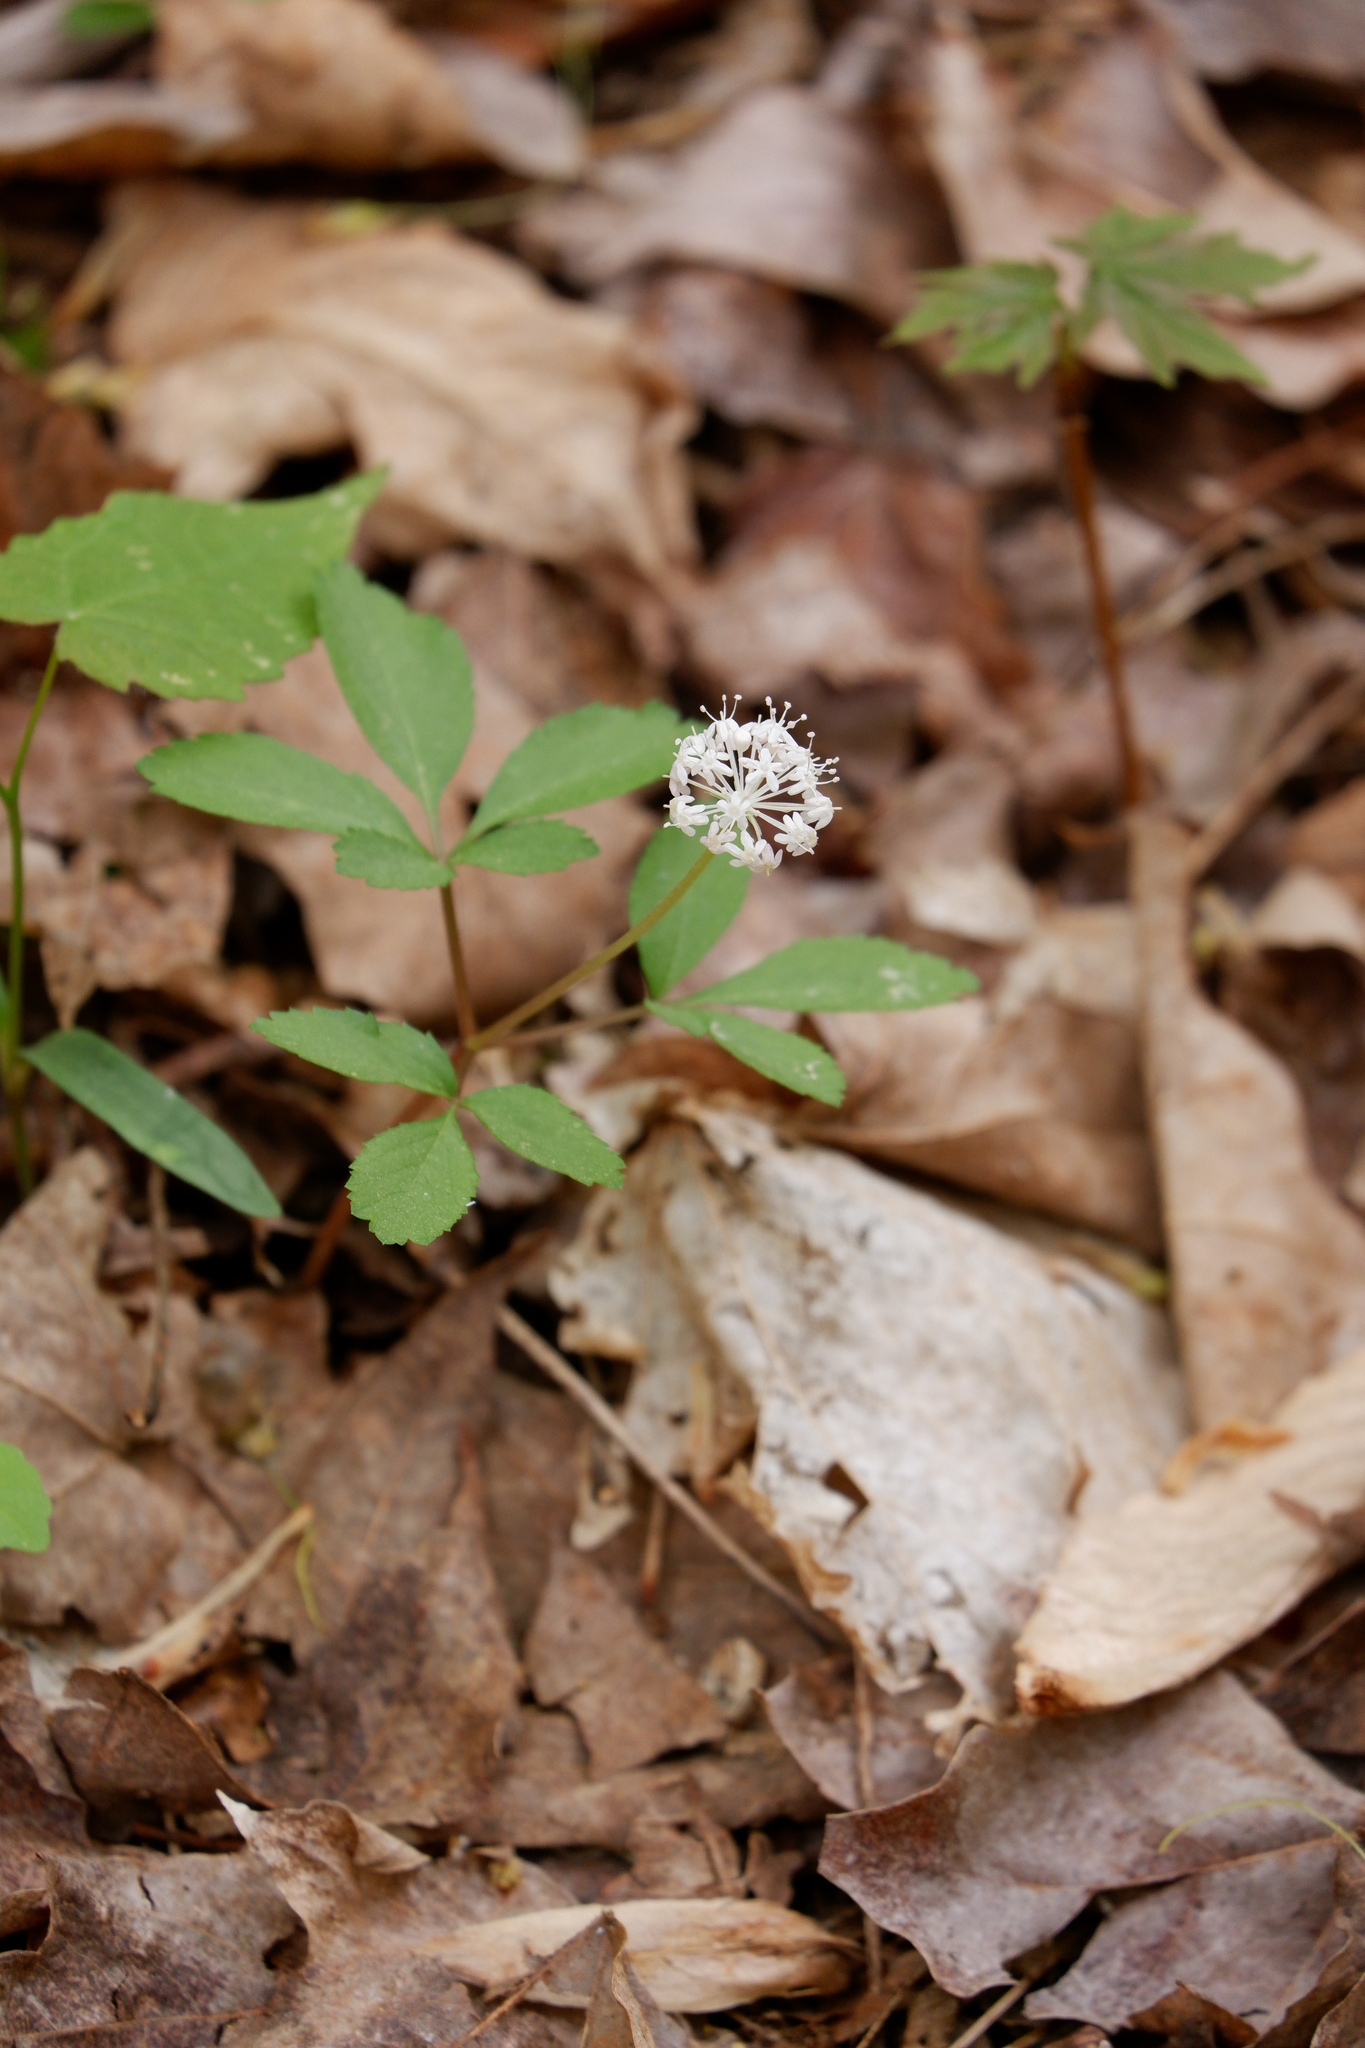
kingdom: Plantae
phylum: Tracheophyta
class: Magnoliopsida
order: Apiales
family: Araliaceae
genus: Panax
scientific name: Panax trifolius
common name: Dwarf ginseng
